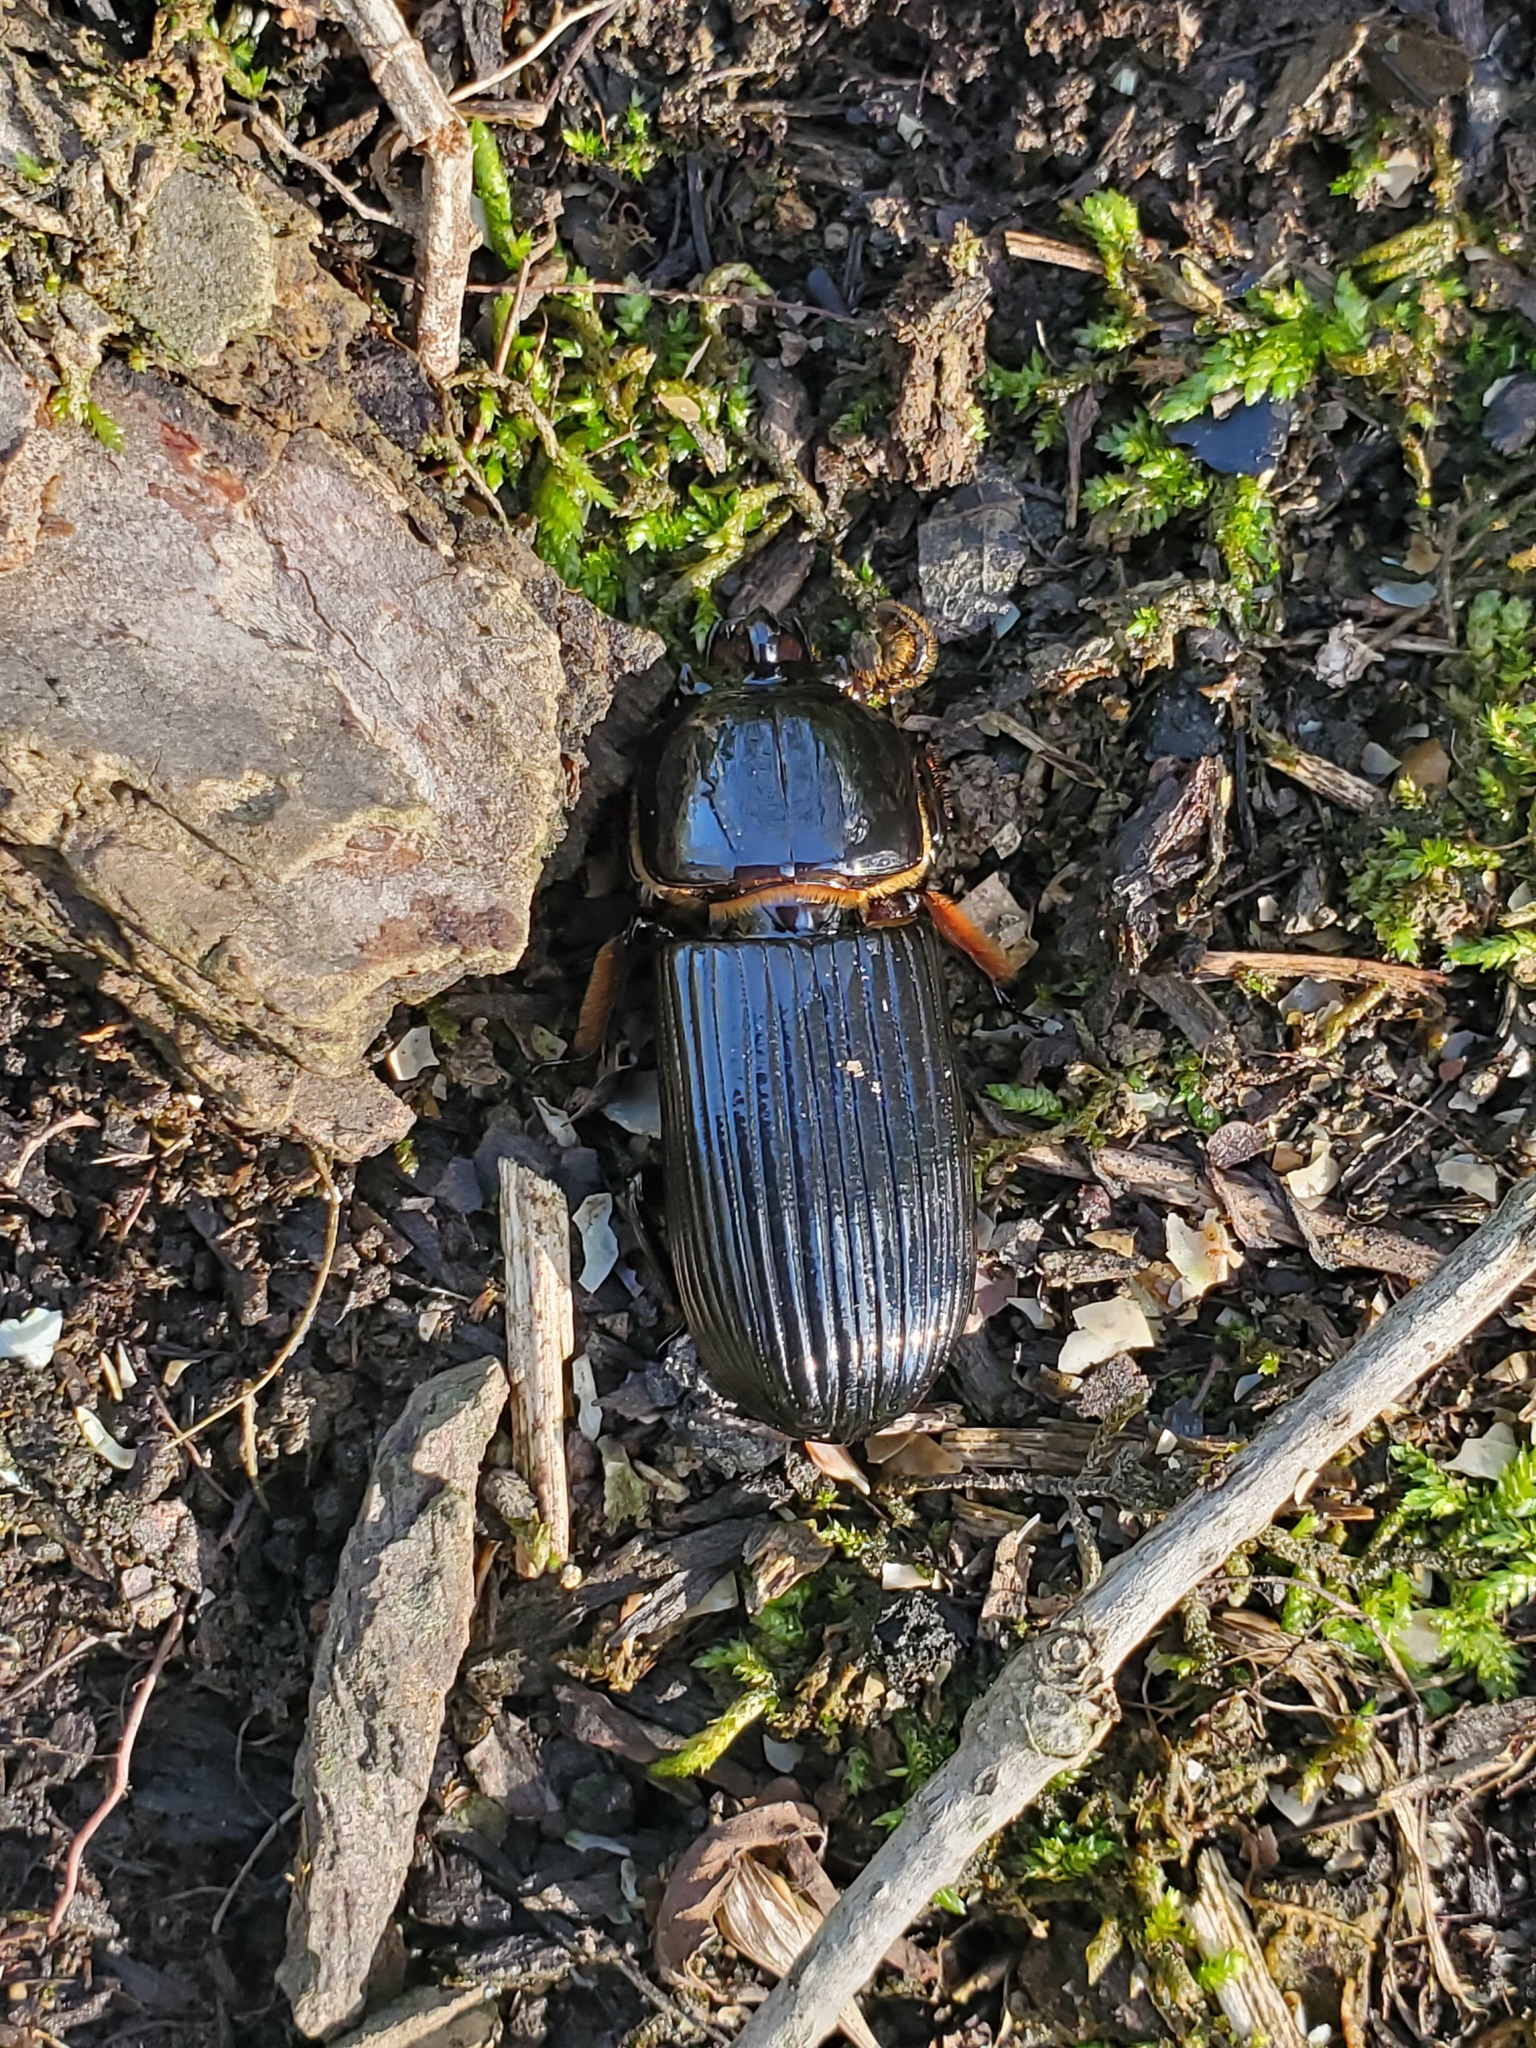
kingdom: Animalia
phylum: Arthropoda
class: Insecta
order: Coleoptera
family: Passalidae
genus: Odontotaenius
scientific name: Odontotaenius disjunctus
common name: Patent leather beetle
